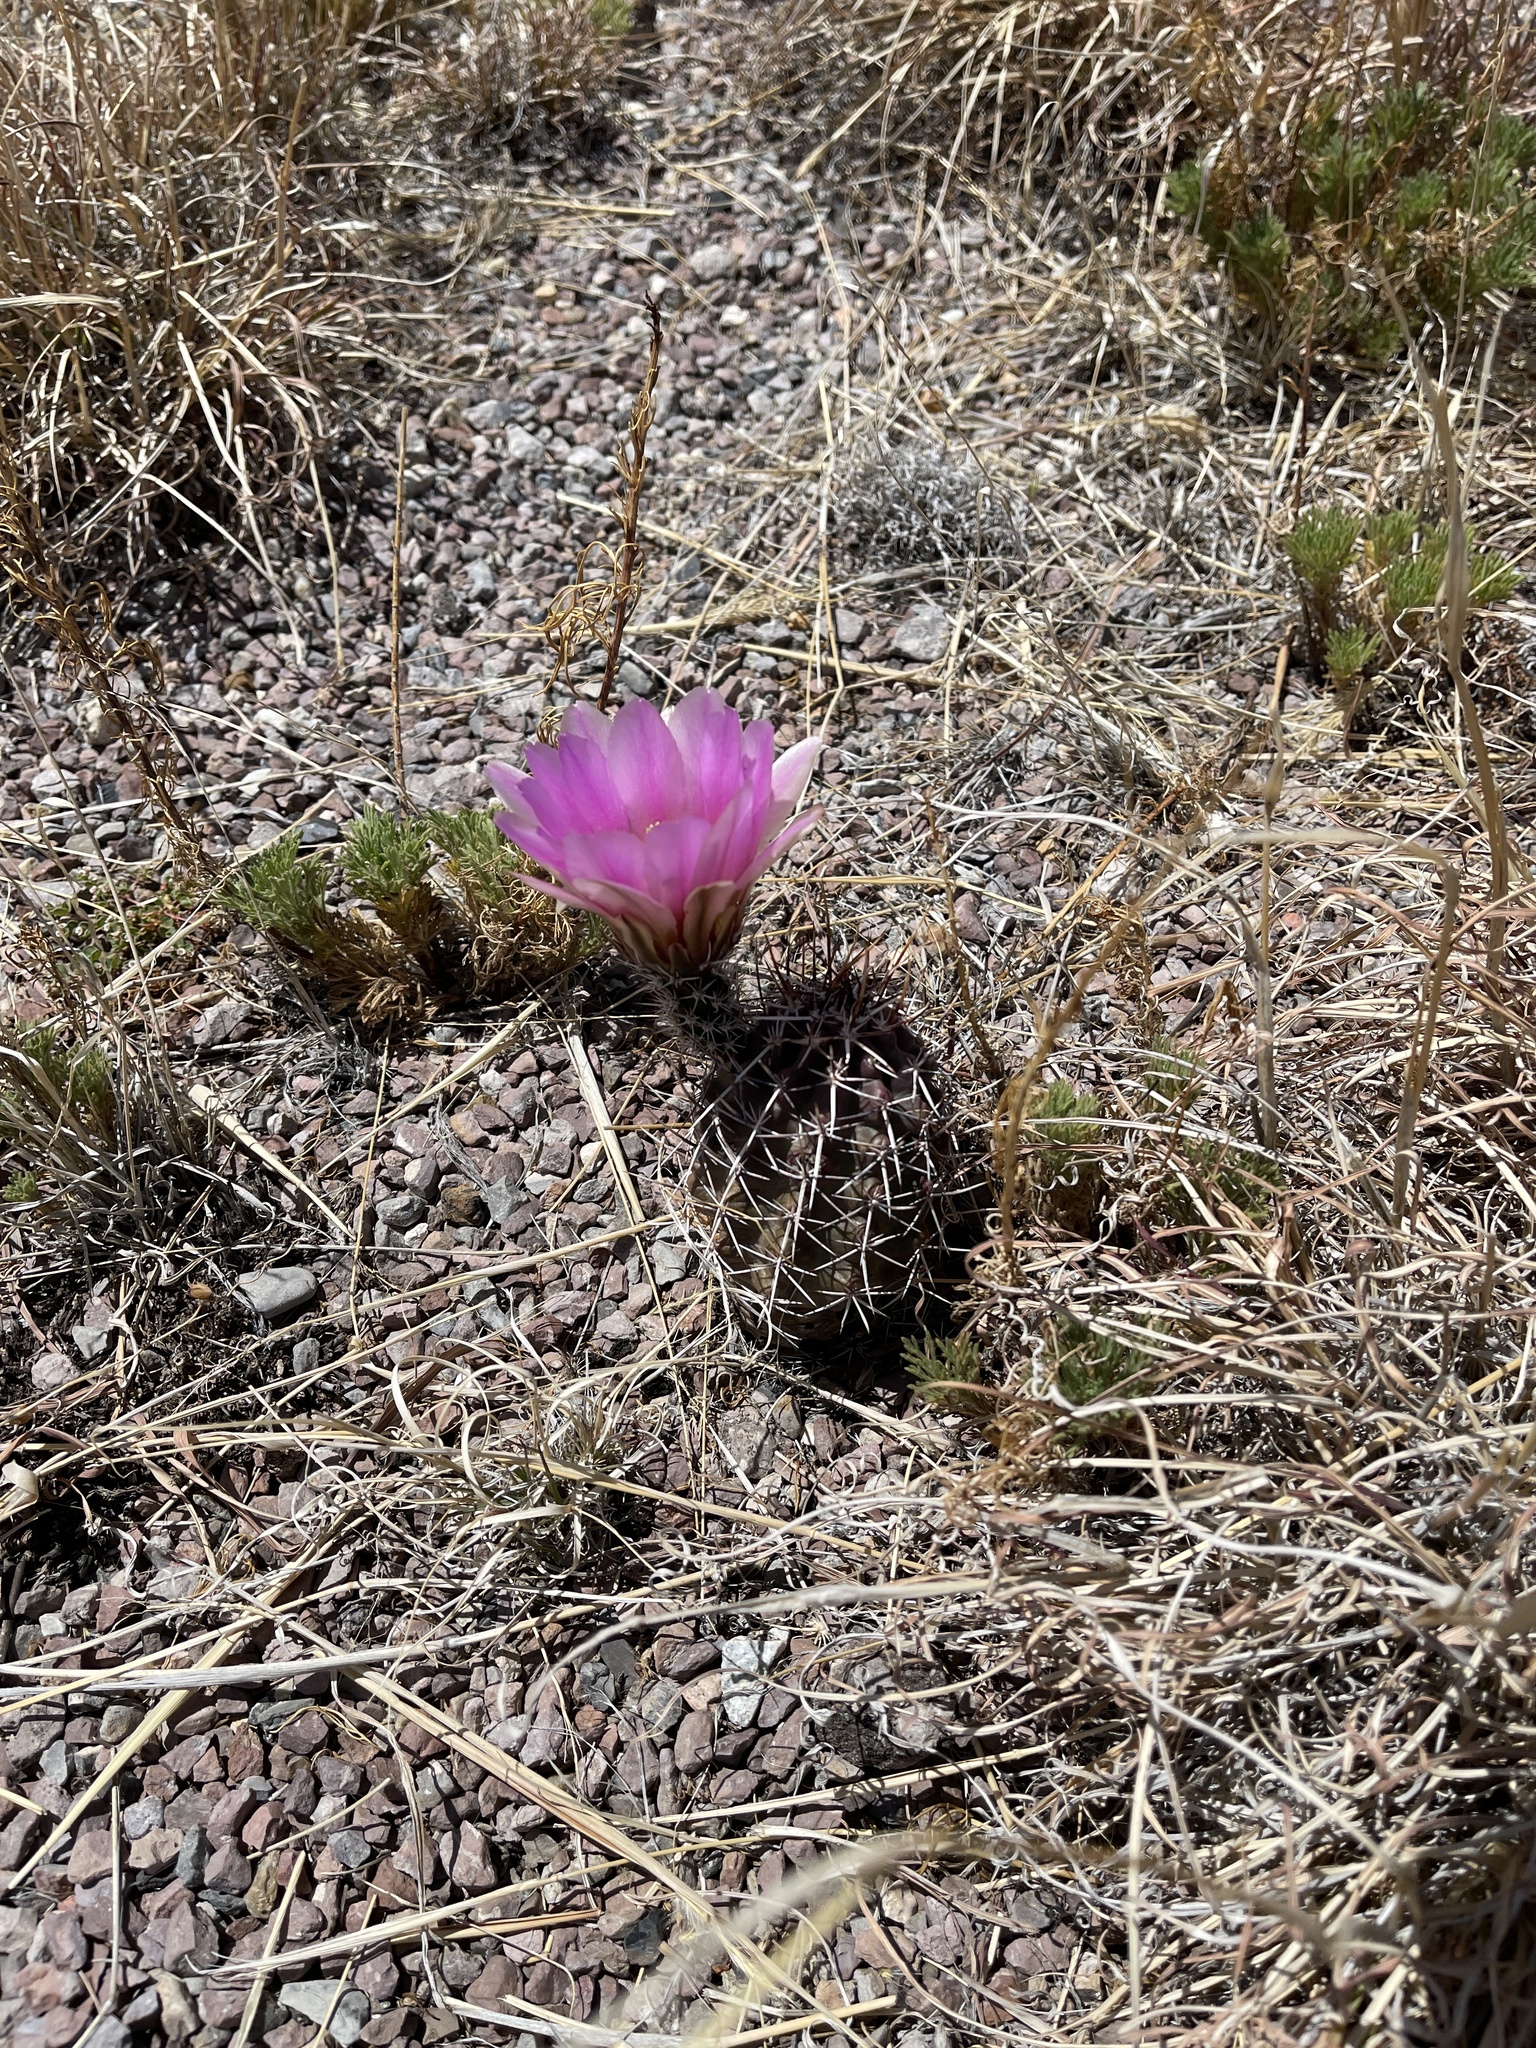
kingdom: Plantae
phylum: Tracheophyta
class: Magnoliopsida
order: Caryophyllales
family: Cactaceae
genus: Echinocereus
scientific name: Echinocereus fendleri
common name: Fendler's hedgehog cactus
